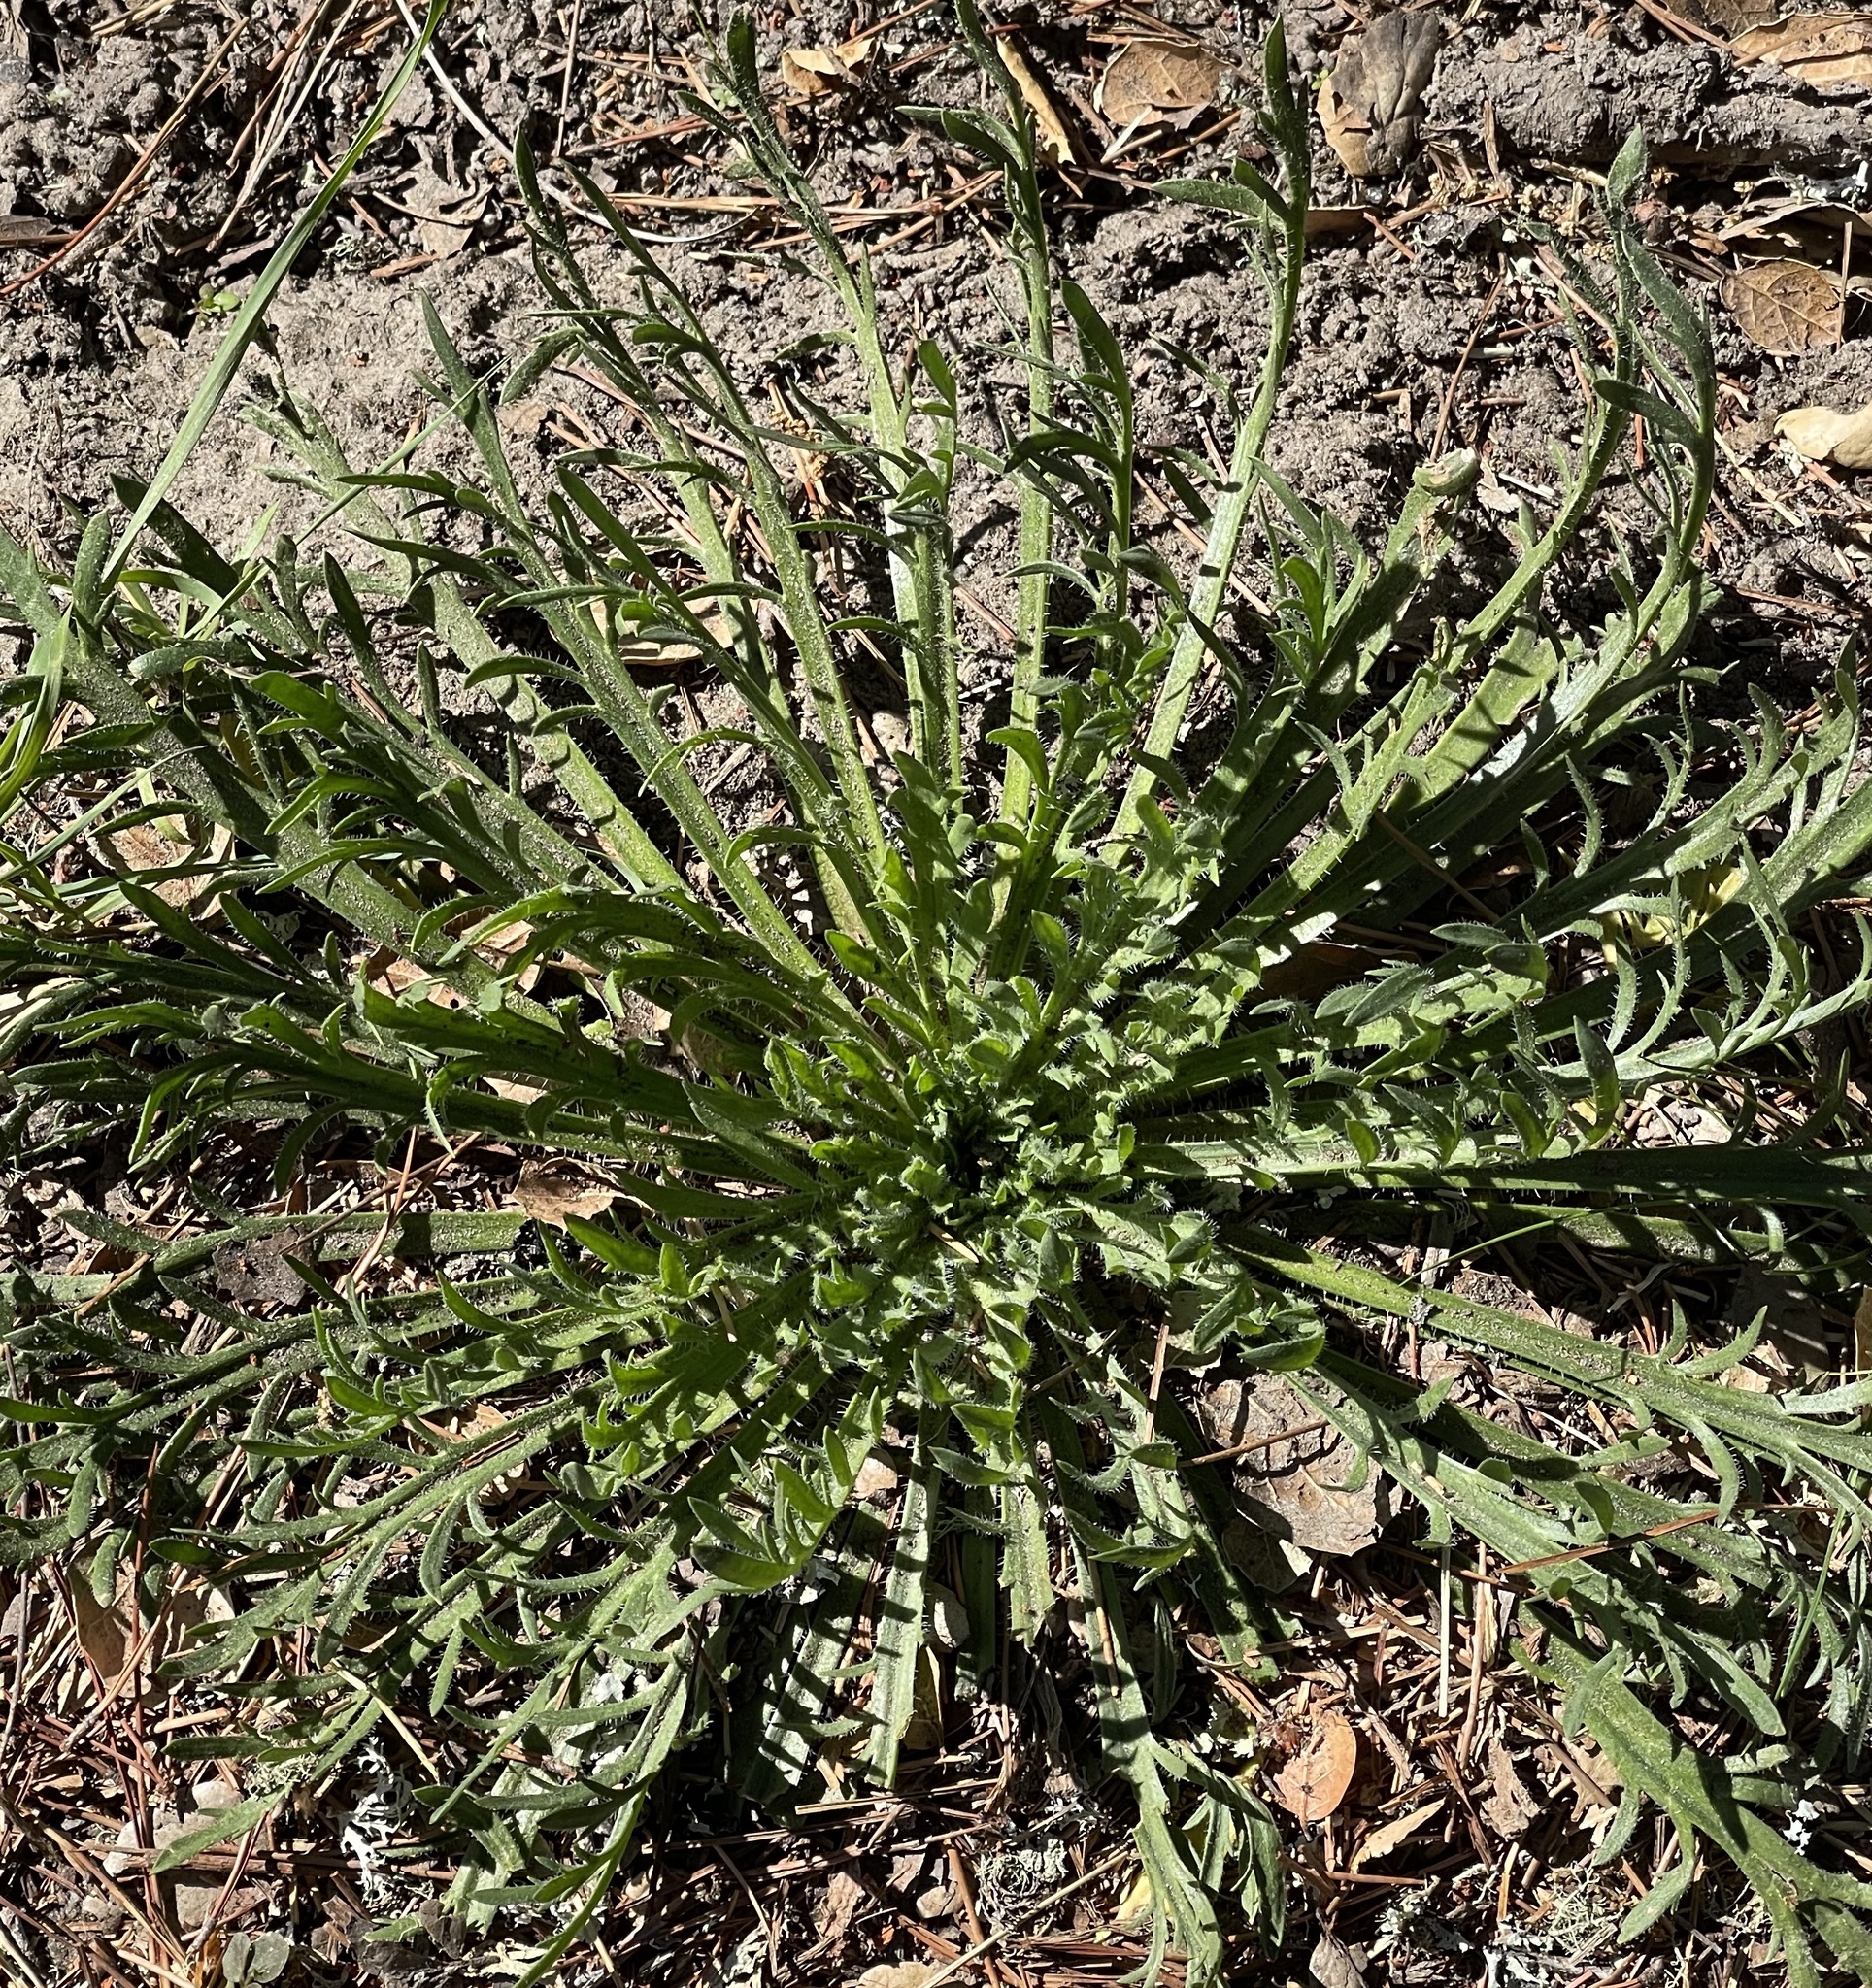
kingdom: Plantae
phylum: Tracheophyta
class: Magnoliopsida
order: Lamiales
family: Plantaginaceae
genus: Plantago
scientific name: Plantago coronopus
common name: Buck's-horn plantain
